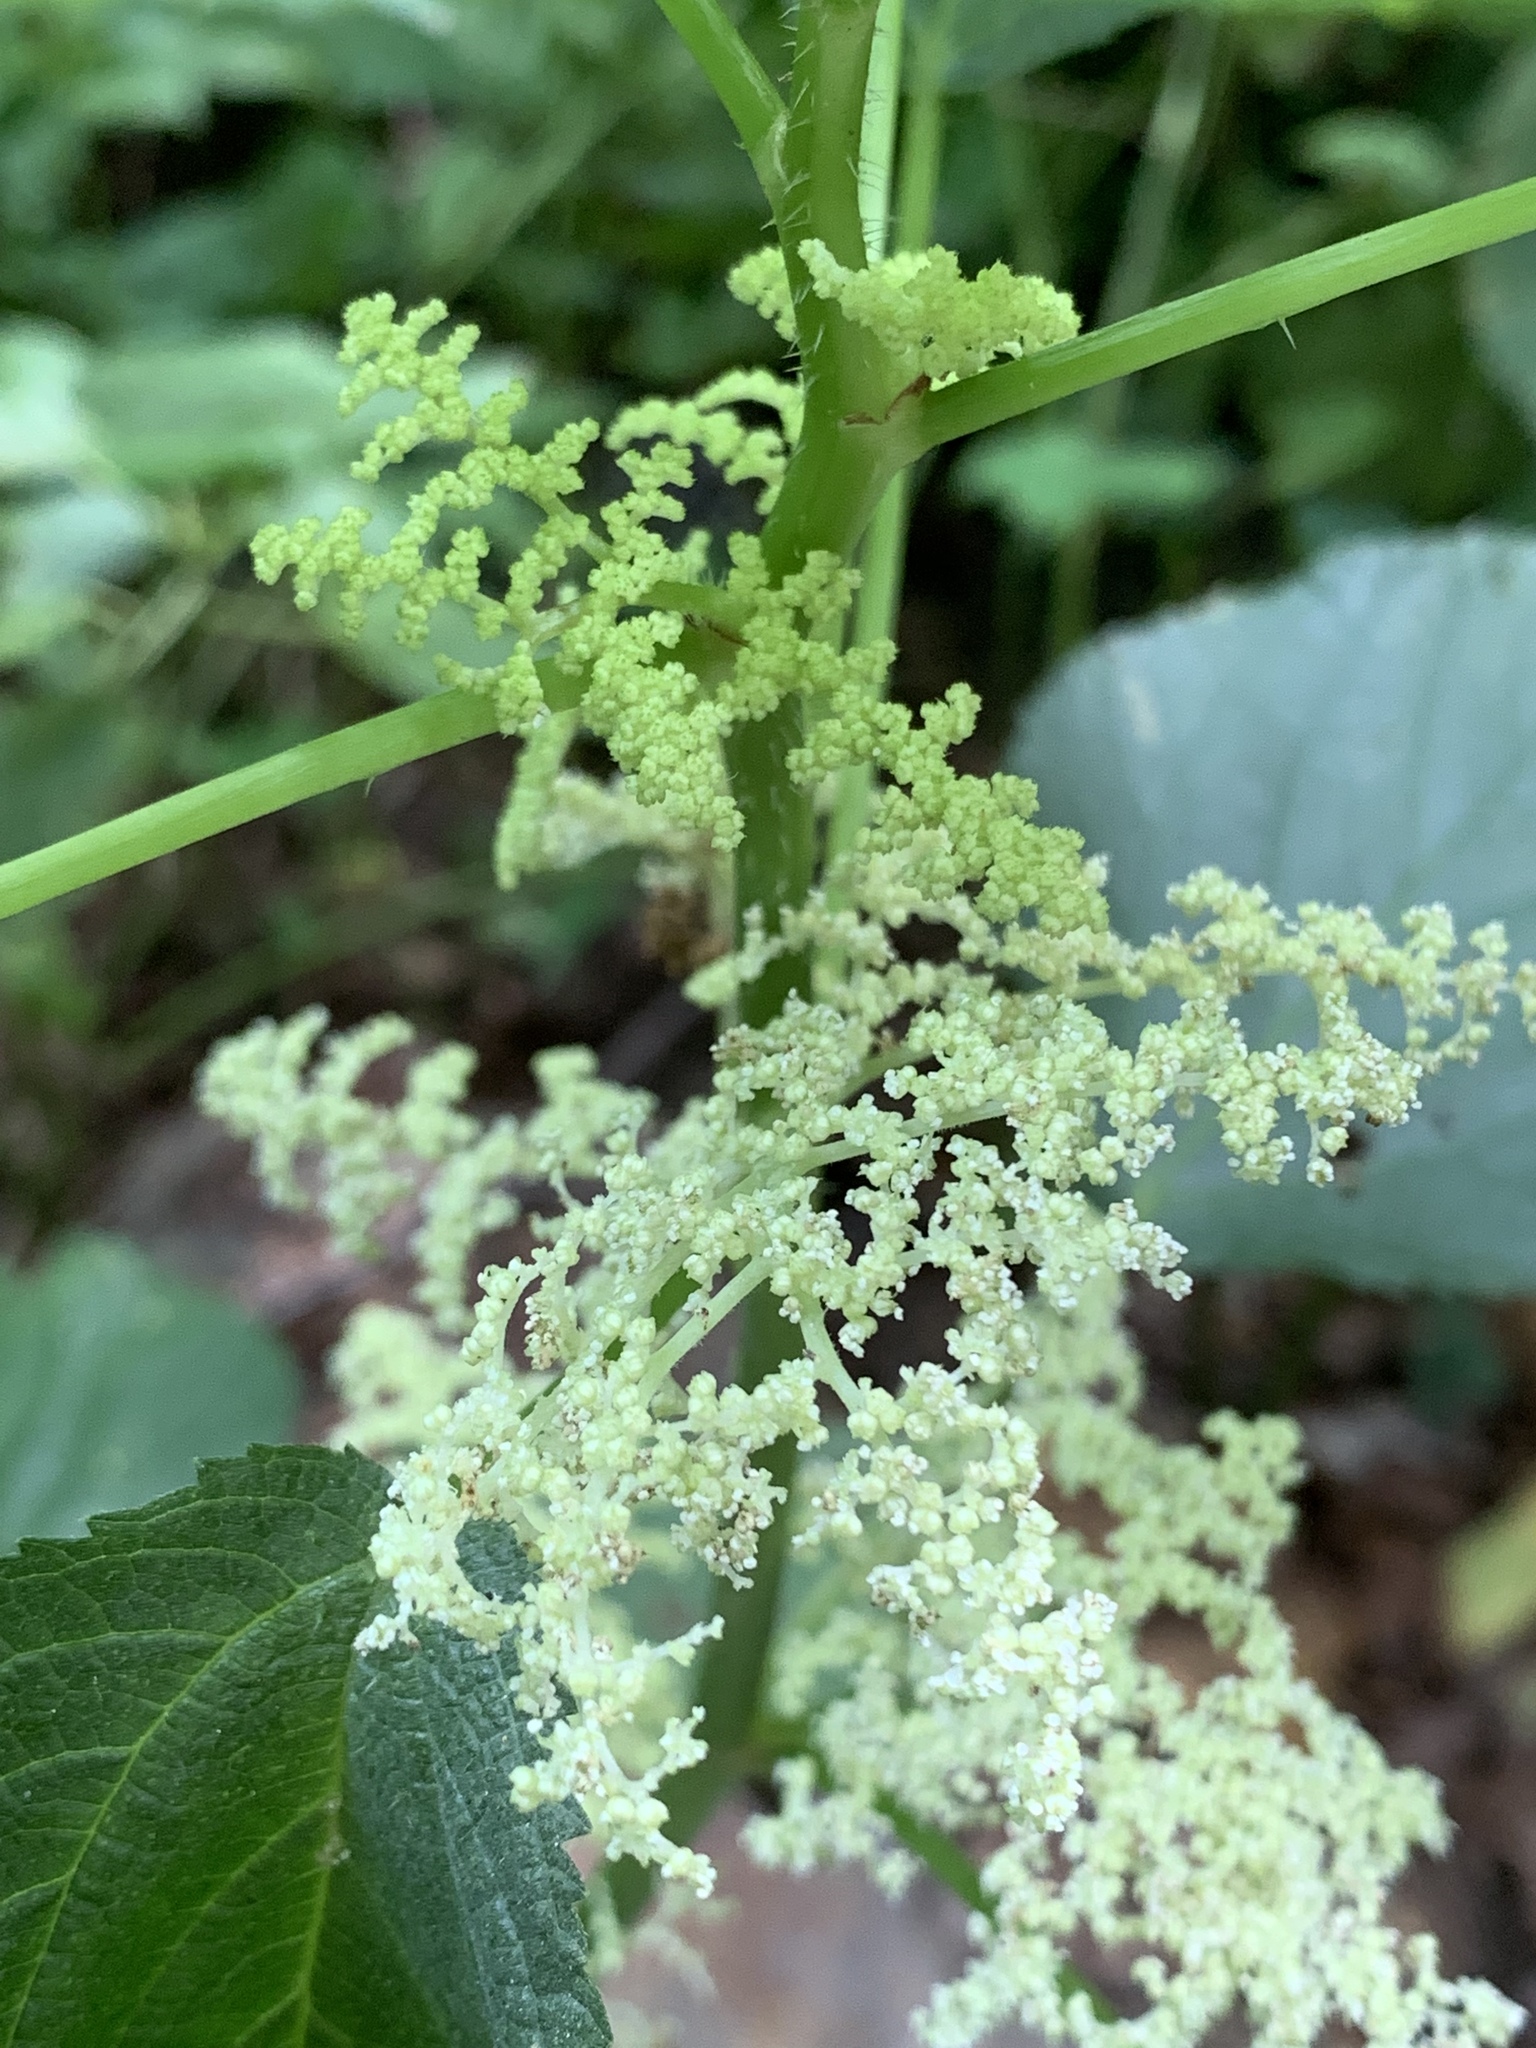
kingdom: Plantae
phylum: Tracheophyta
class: Magnoliopsida
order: Rosales
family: Urticaceae
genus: Laportea
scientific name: Laportea canadensis
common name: Canada nettle
